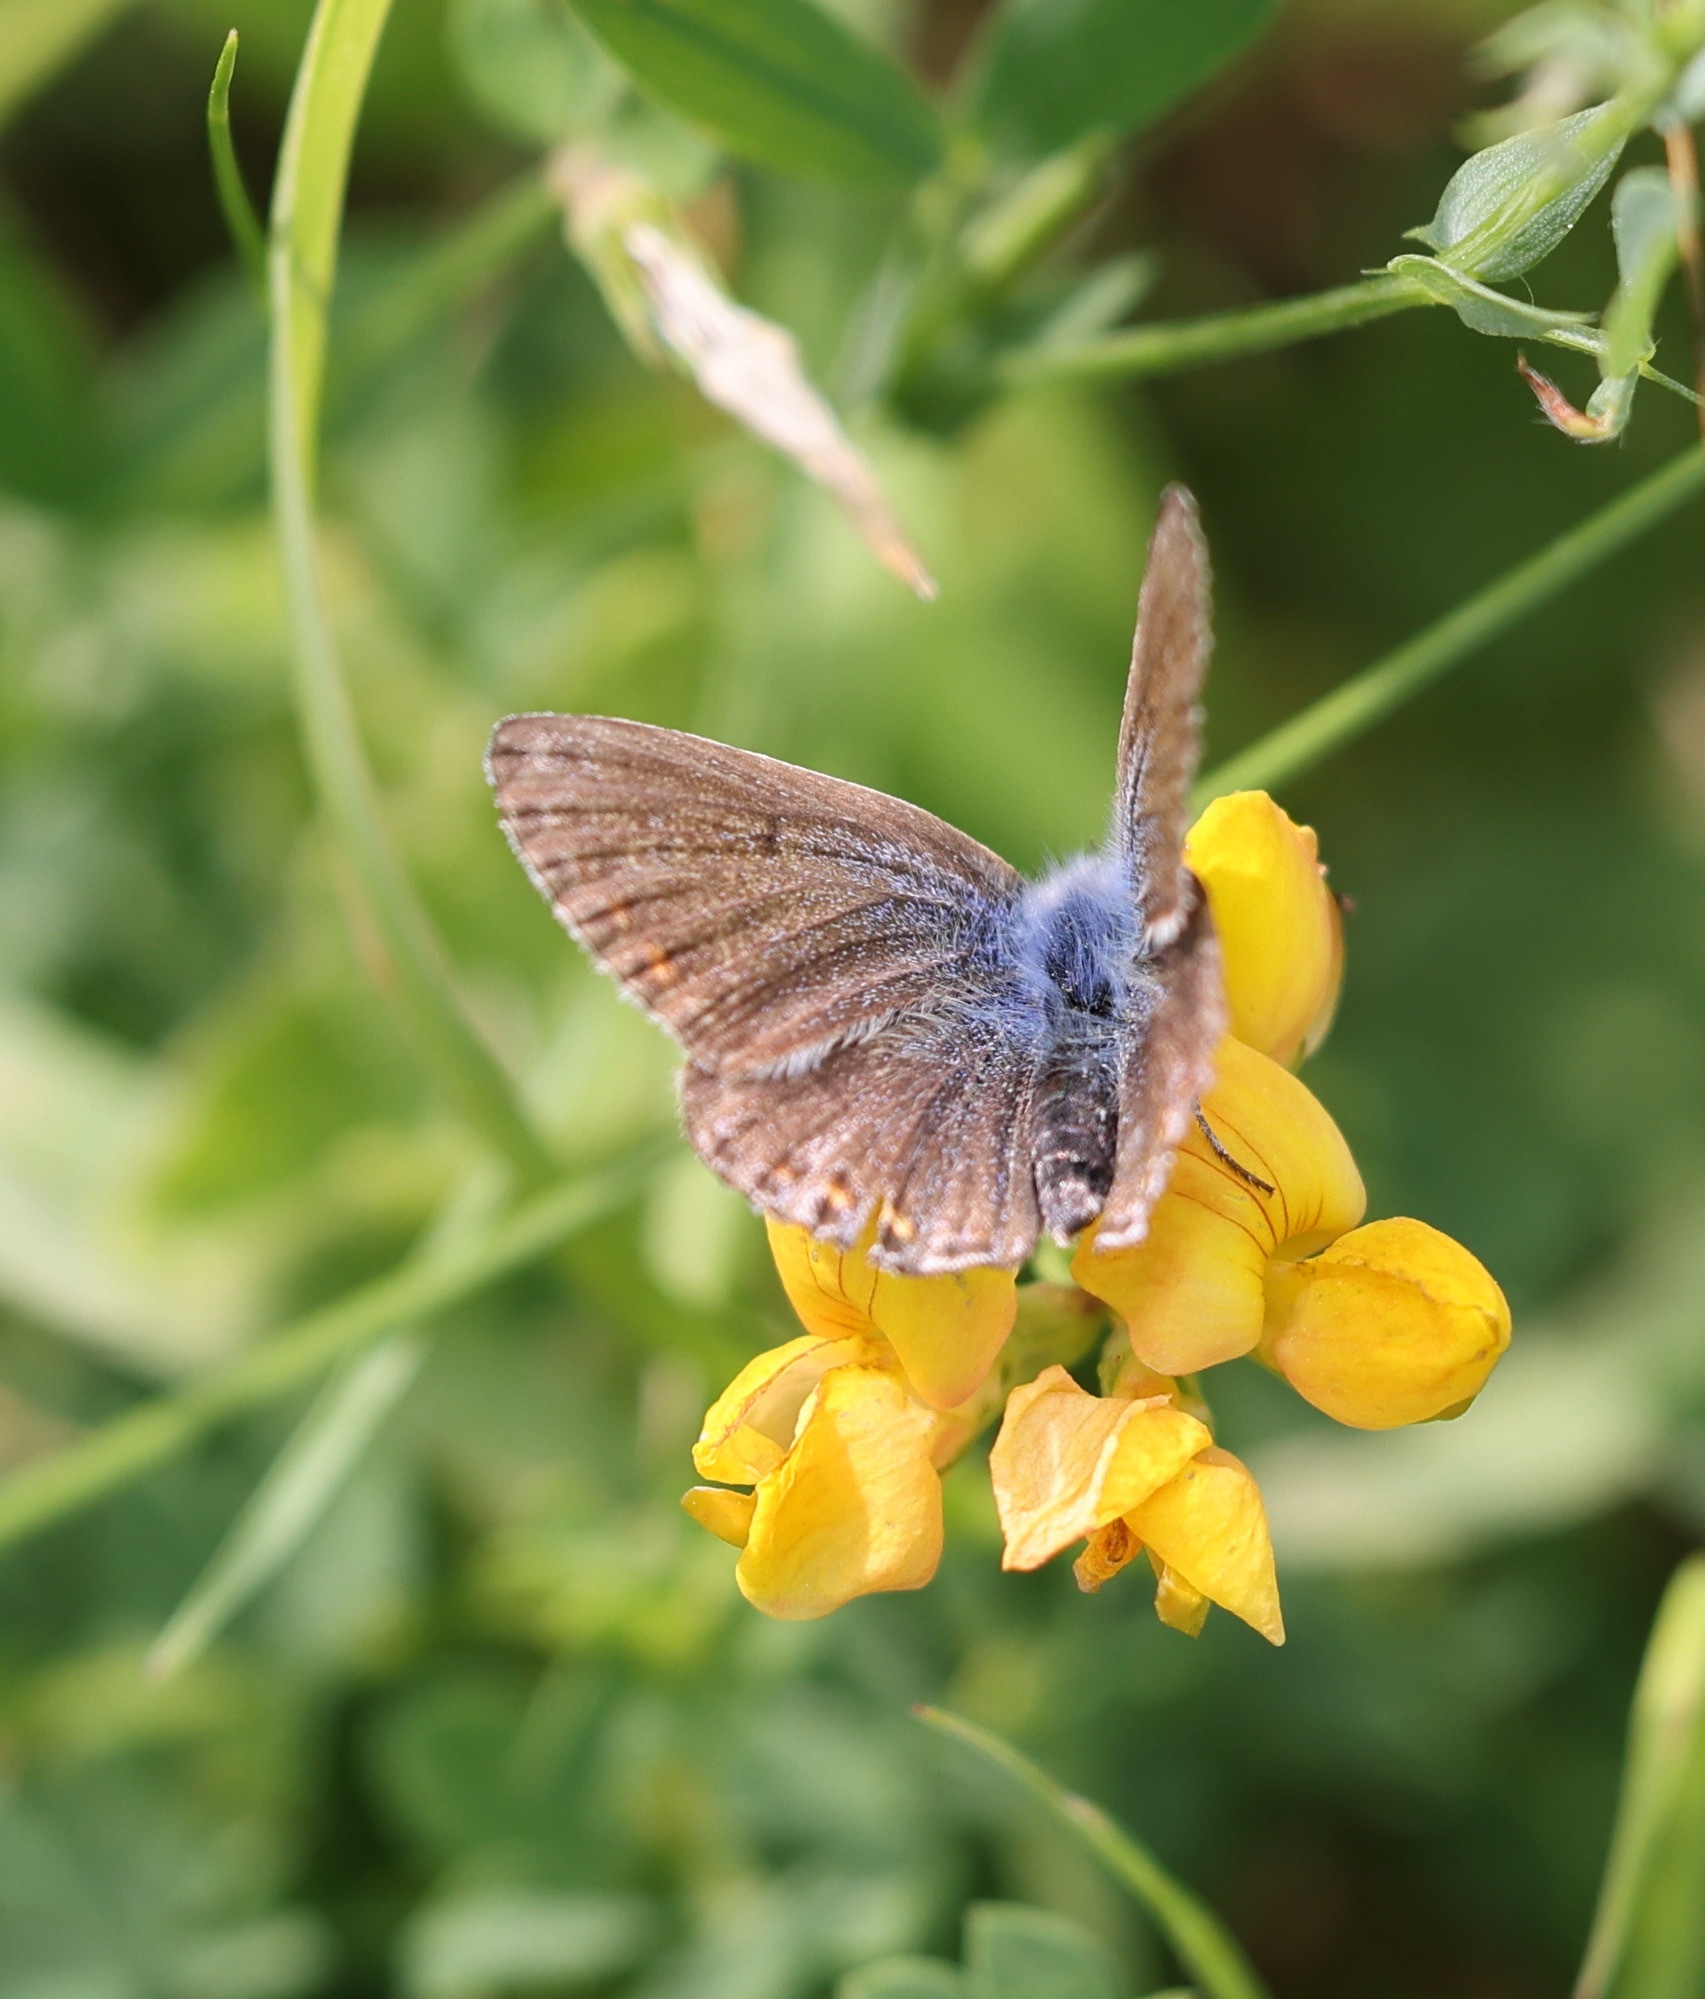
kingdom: Animalia
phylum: Arthropoda
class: Insecta
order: Lepidoptera
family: Lycaenidae
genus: Polyommatus
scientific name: Polyommatus icarus
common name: Common blue
